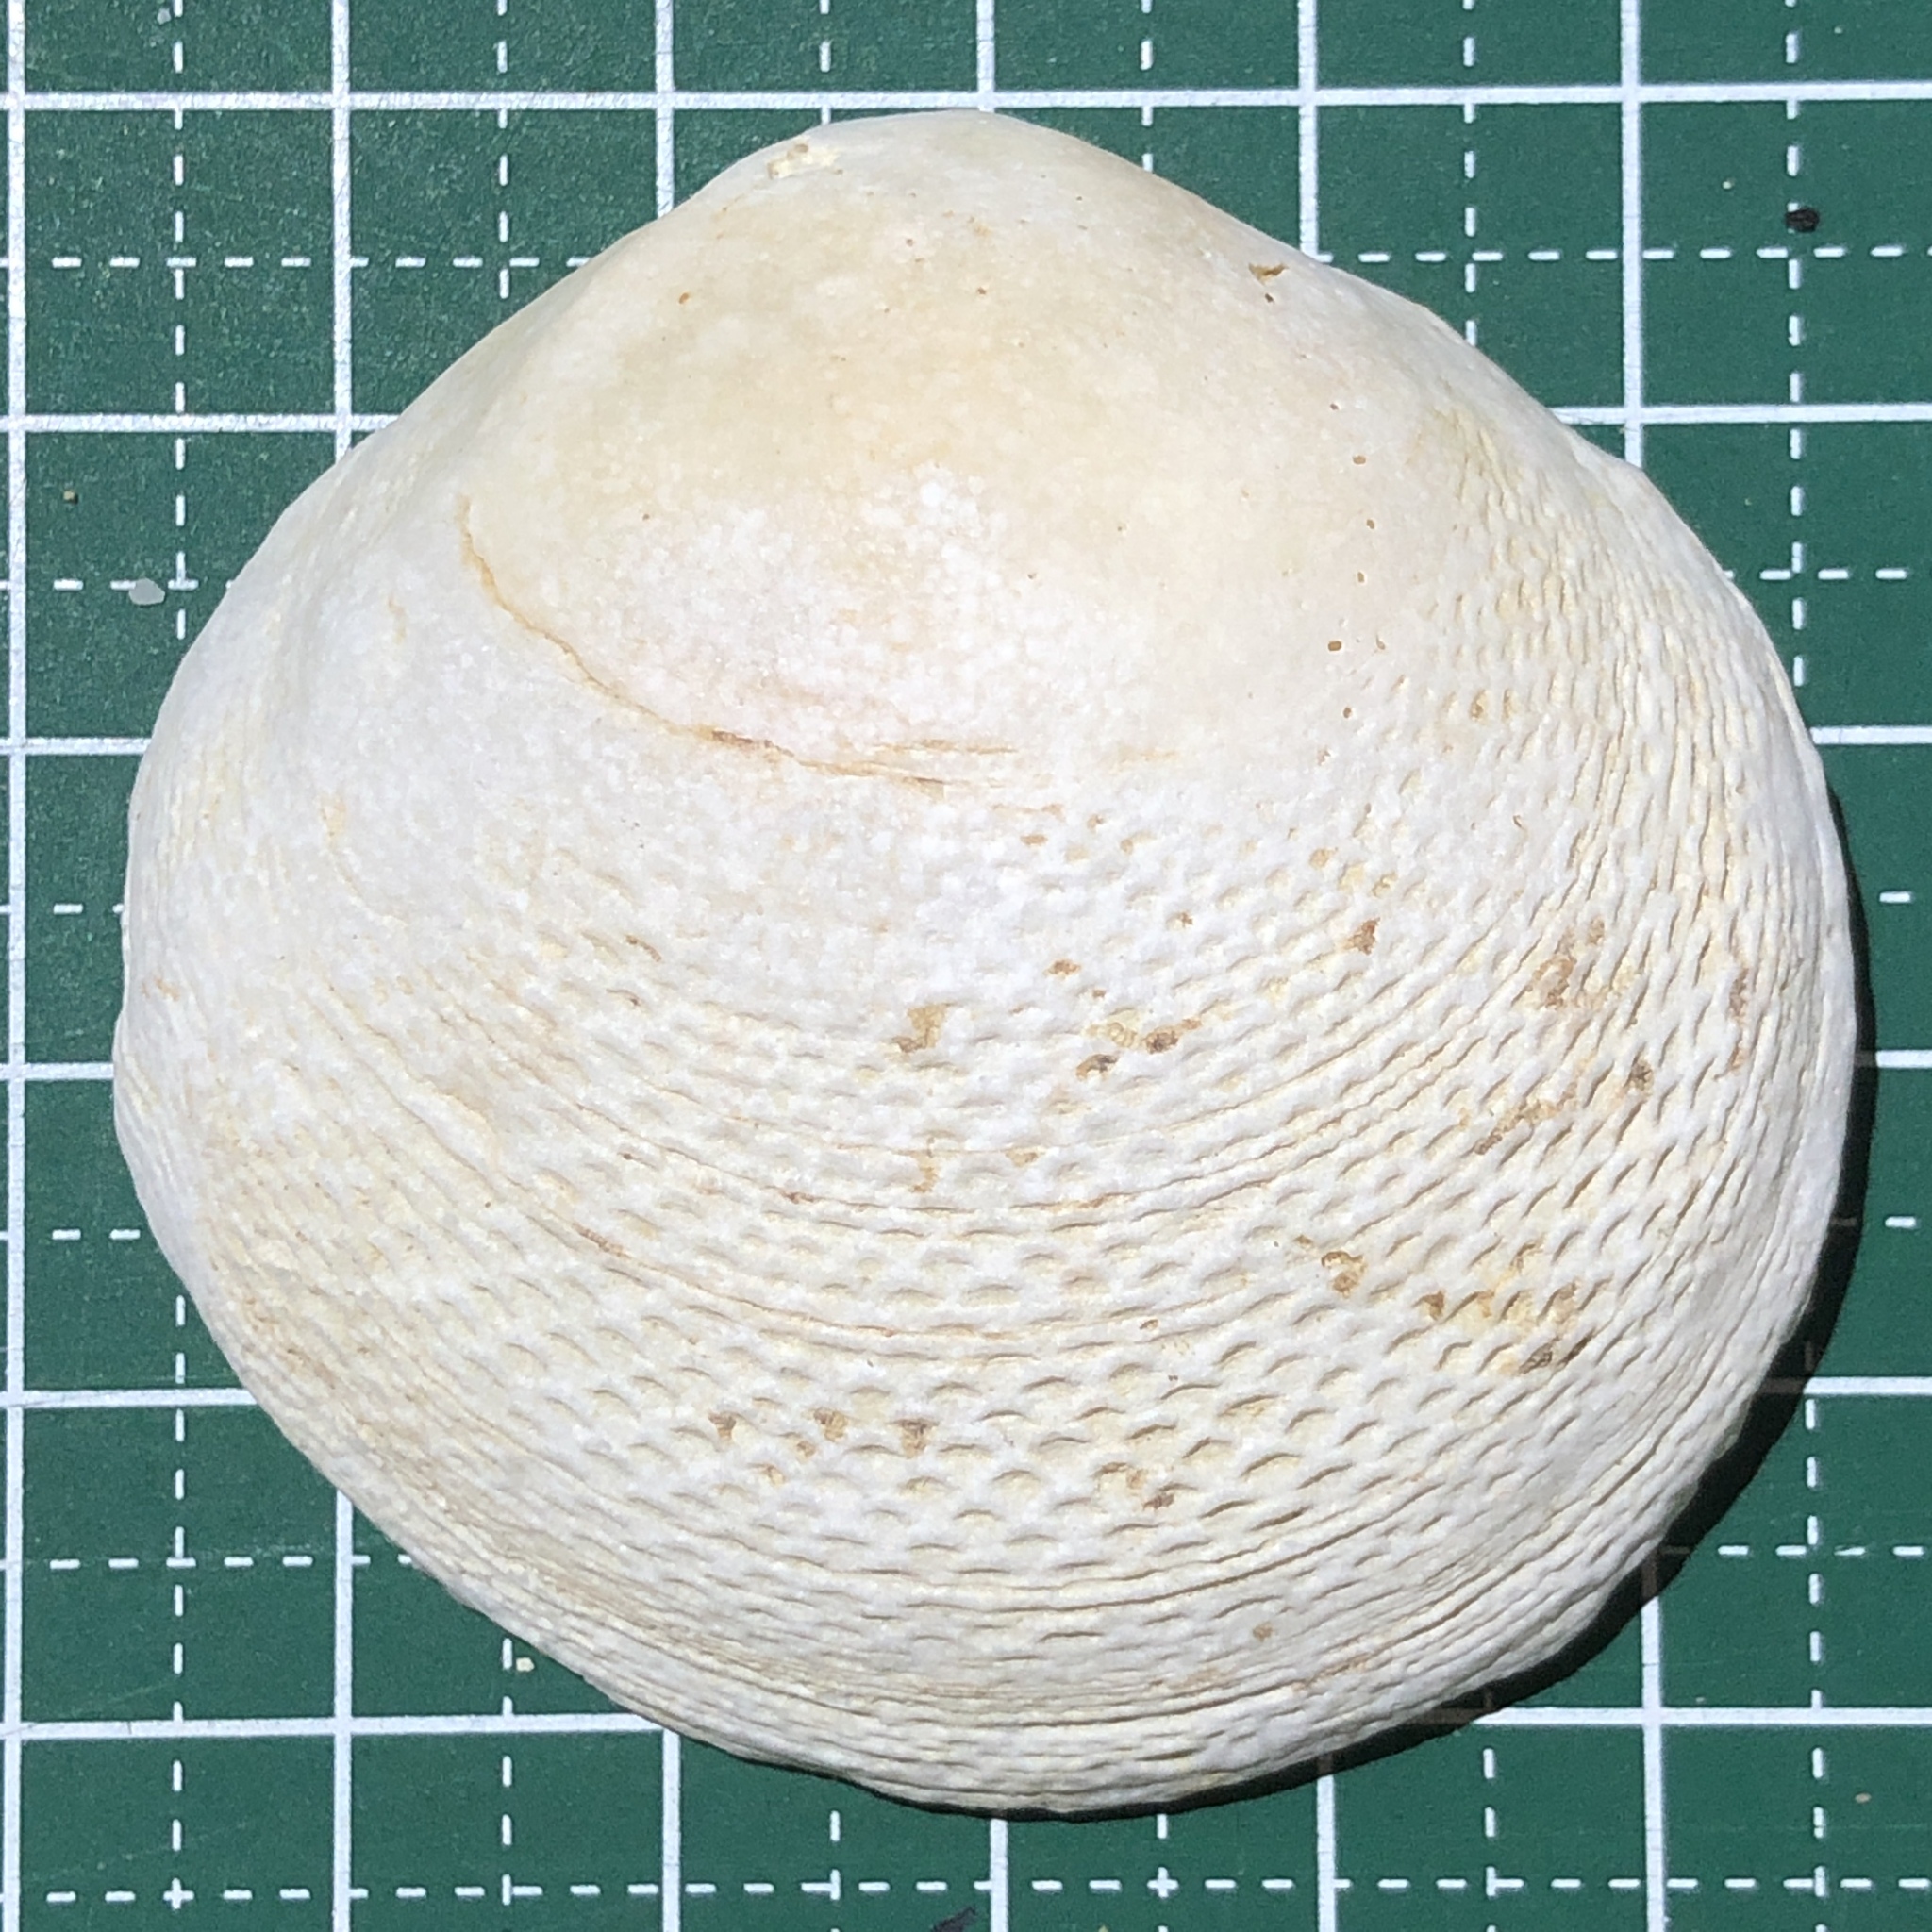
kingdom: Animalia
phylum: Mollusca
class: Bivalvia
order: Cardiida
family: Tellinidae
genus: Scutarcopagia
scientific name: Scutarcopagia scobinata
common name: Rasp tellin
